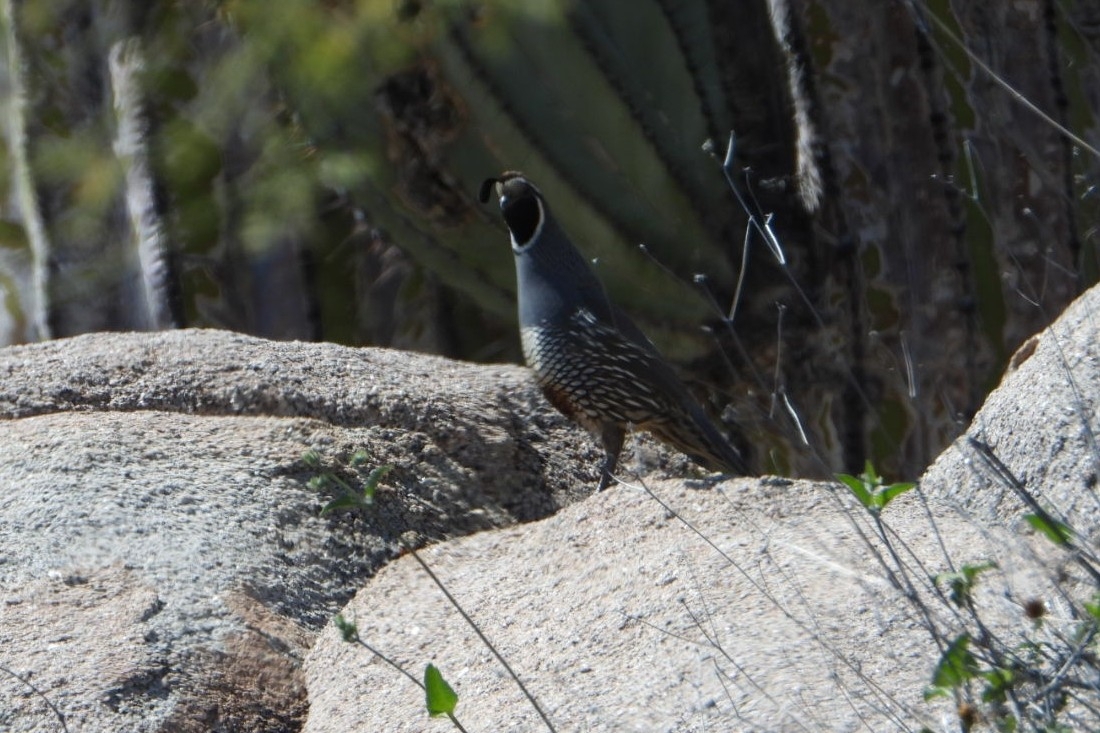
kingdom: Animalia
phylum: Chordata
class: Aves
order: Galliformes
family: Odontophoridae
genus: Callipepla
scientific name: Callipepla californica
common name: California quail
